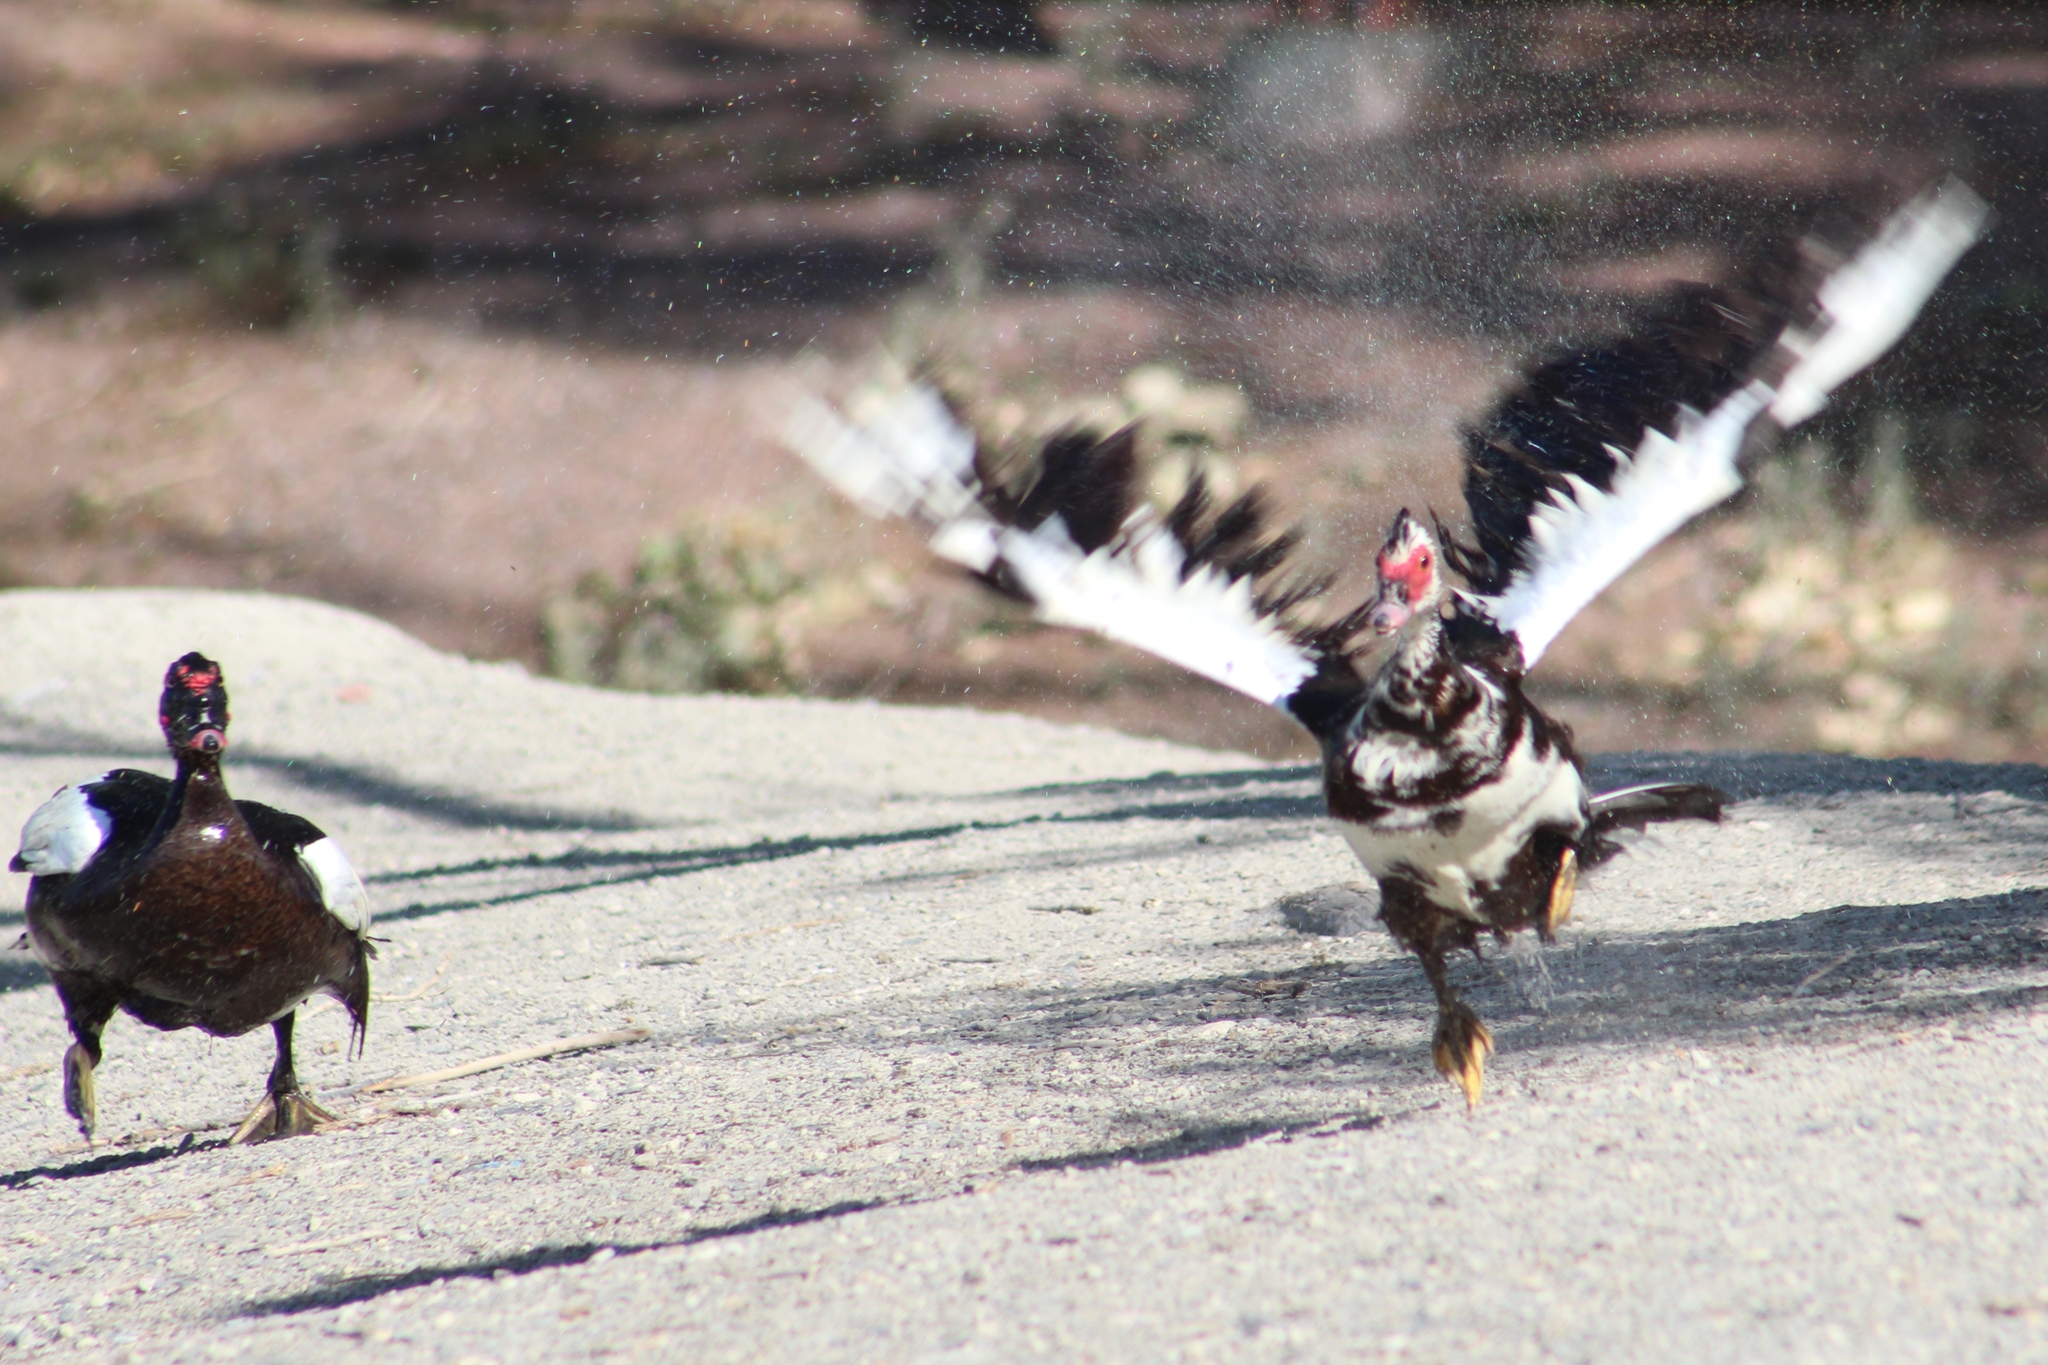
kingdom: Animalia
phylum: Chordata
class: Aves
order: Anseriformes
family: Anatidae
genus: Cairina
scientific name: Cairina moschata
